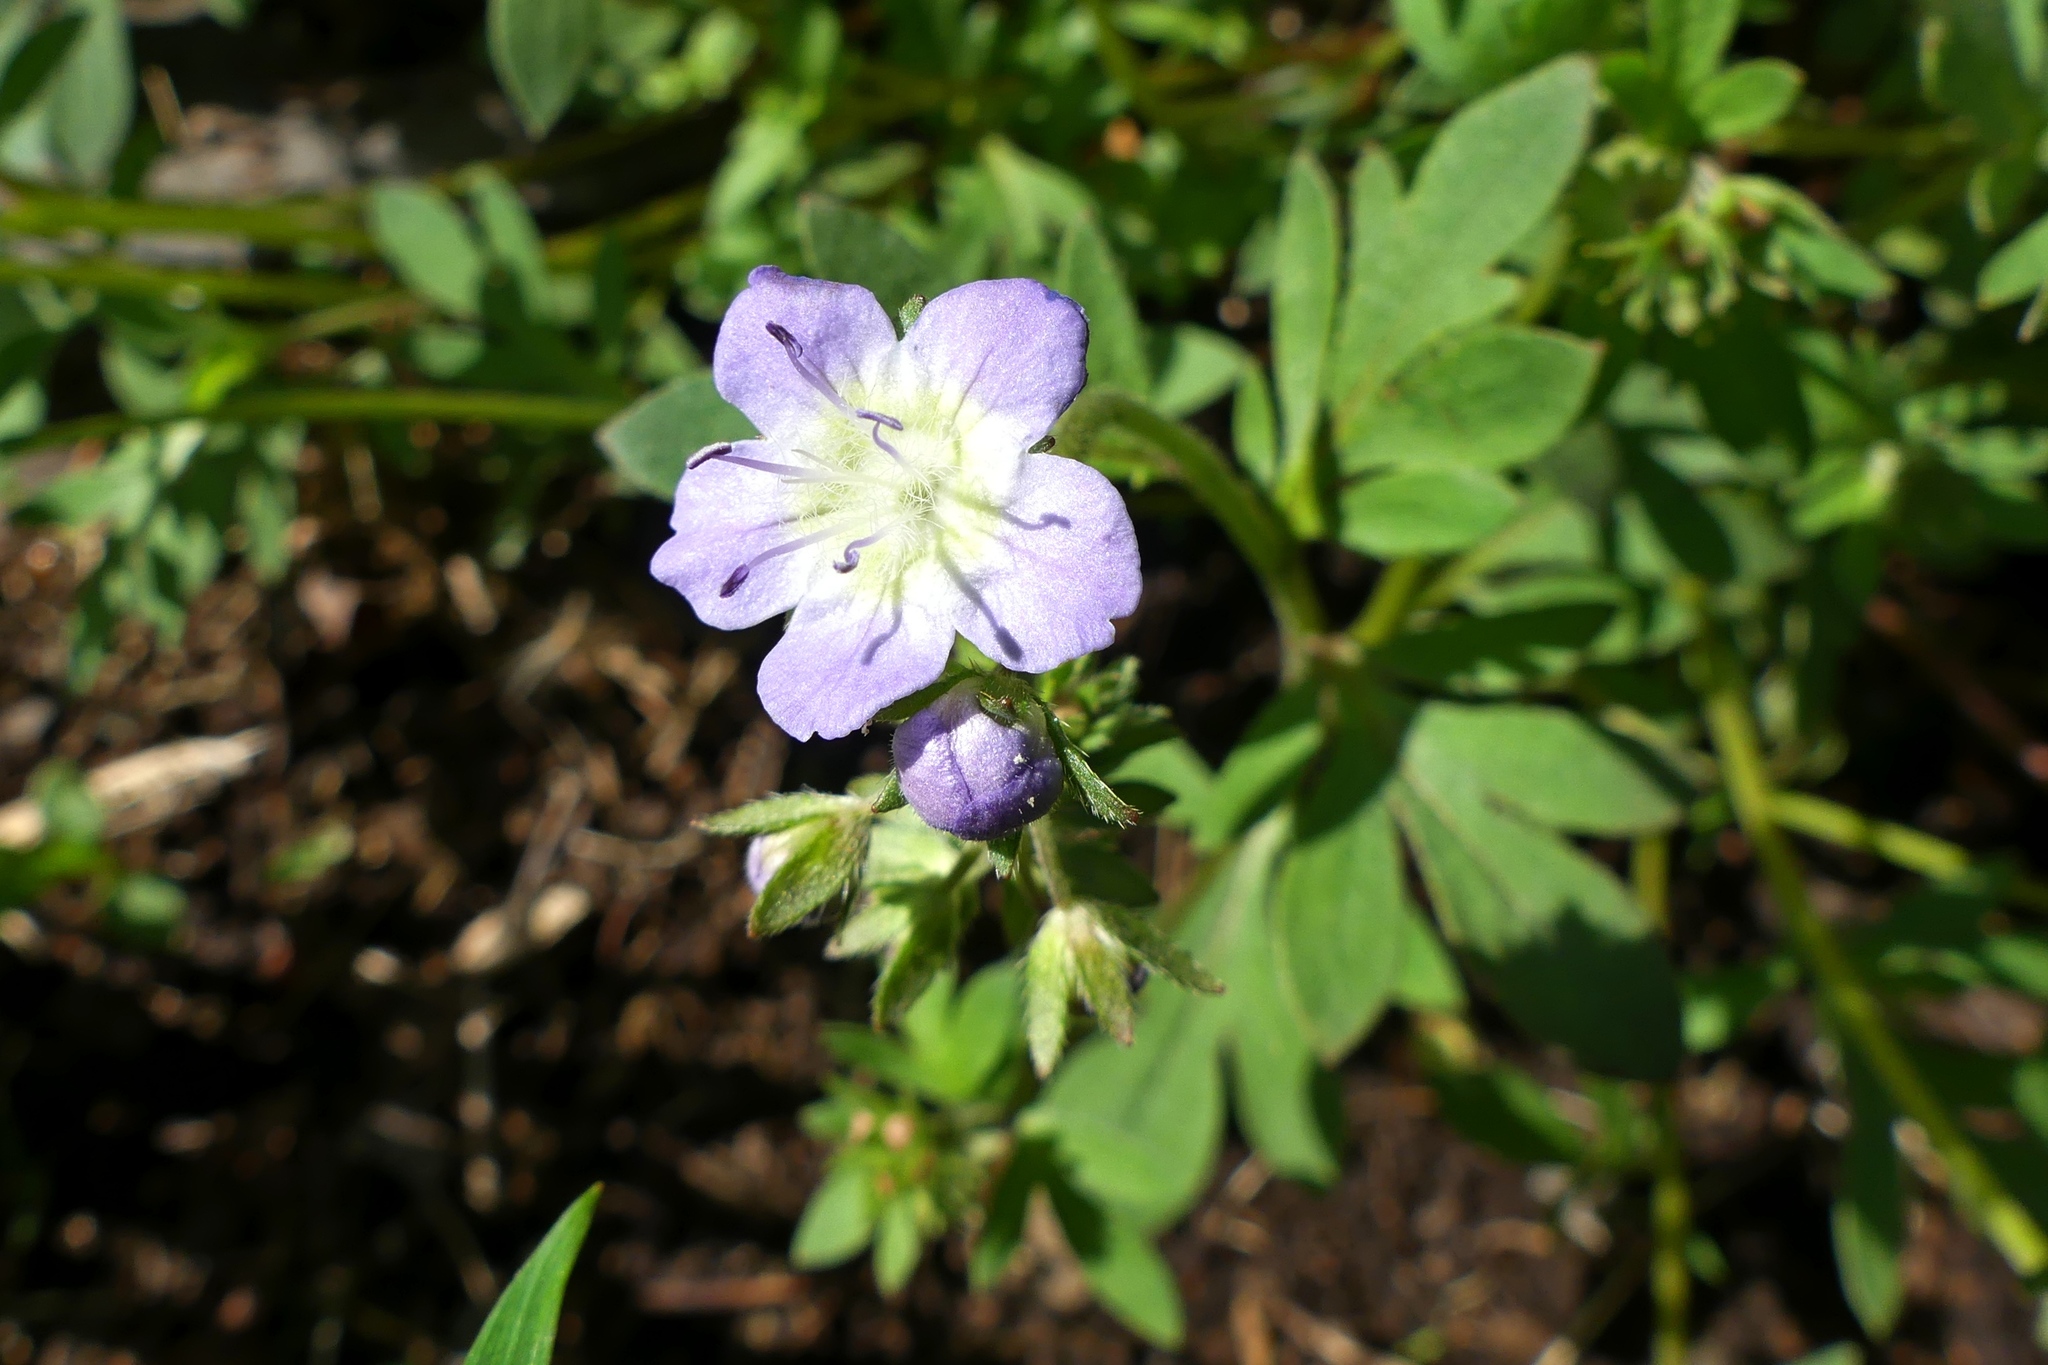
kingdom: Plantae
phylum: Tracheophyta
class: Magnoliopsida
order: Boraginales
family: Hydrophyllaceae
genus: Phacelia
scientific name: Phacelia dubia
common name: Appalachian phacelia
